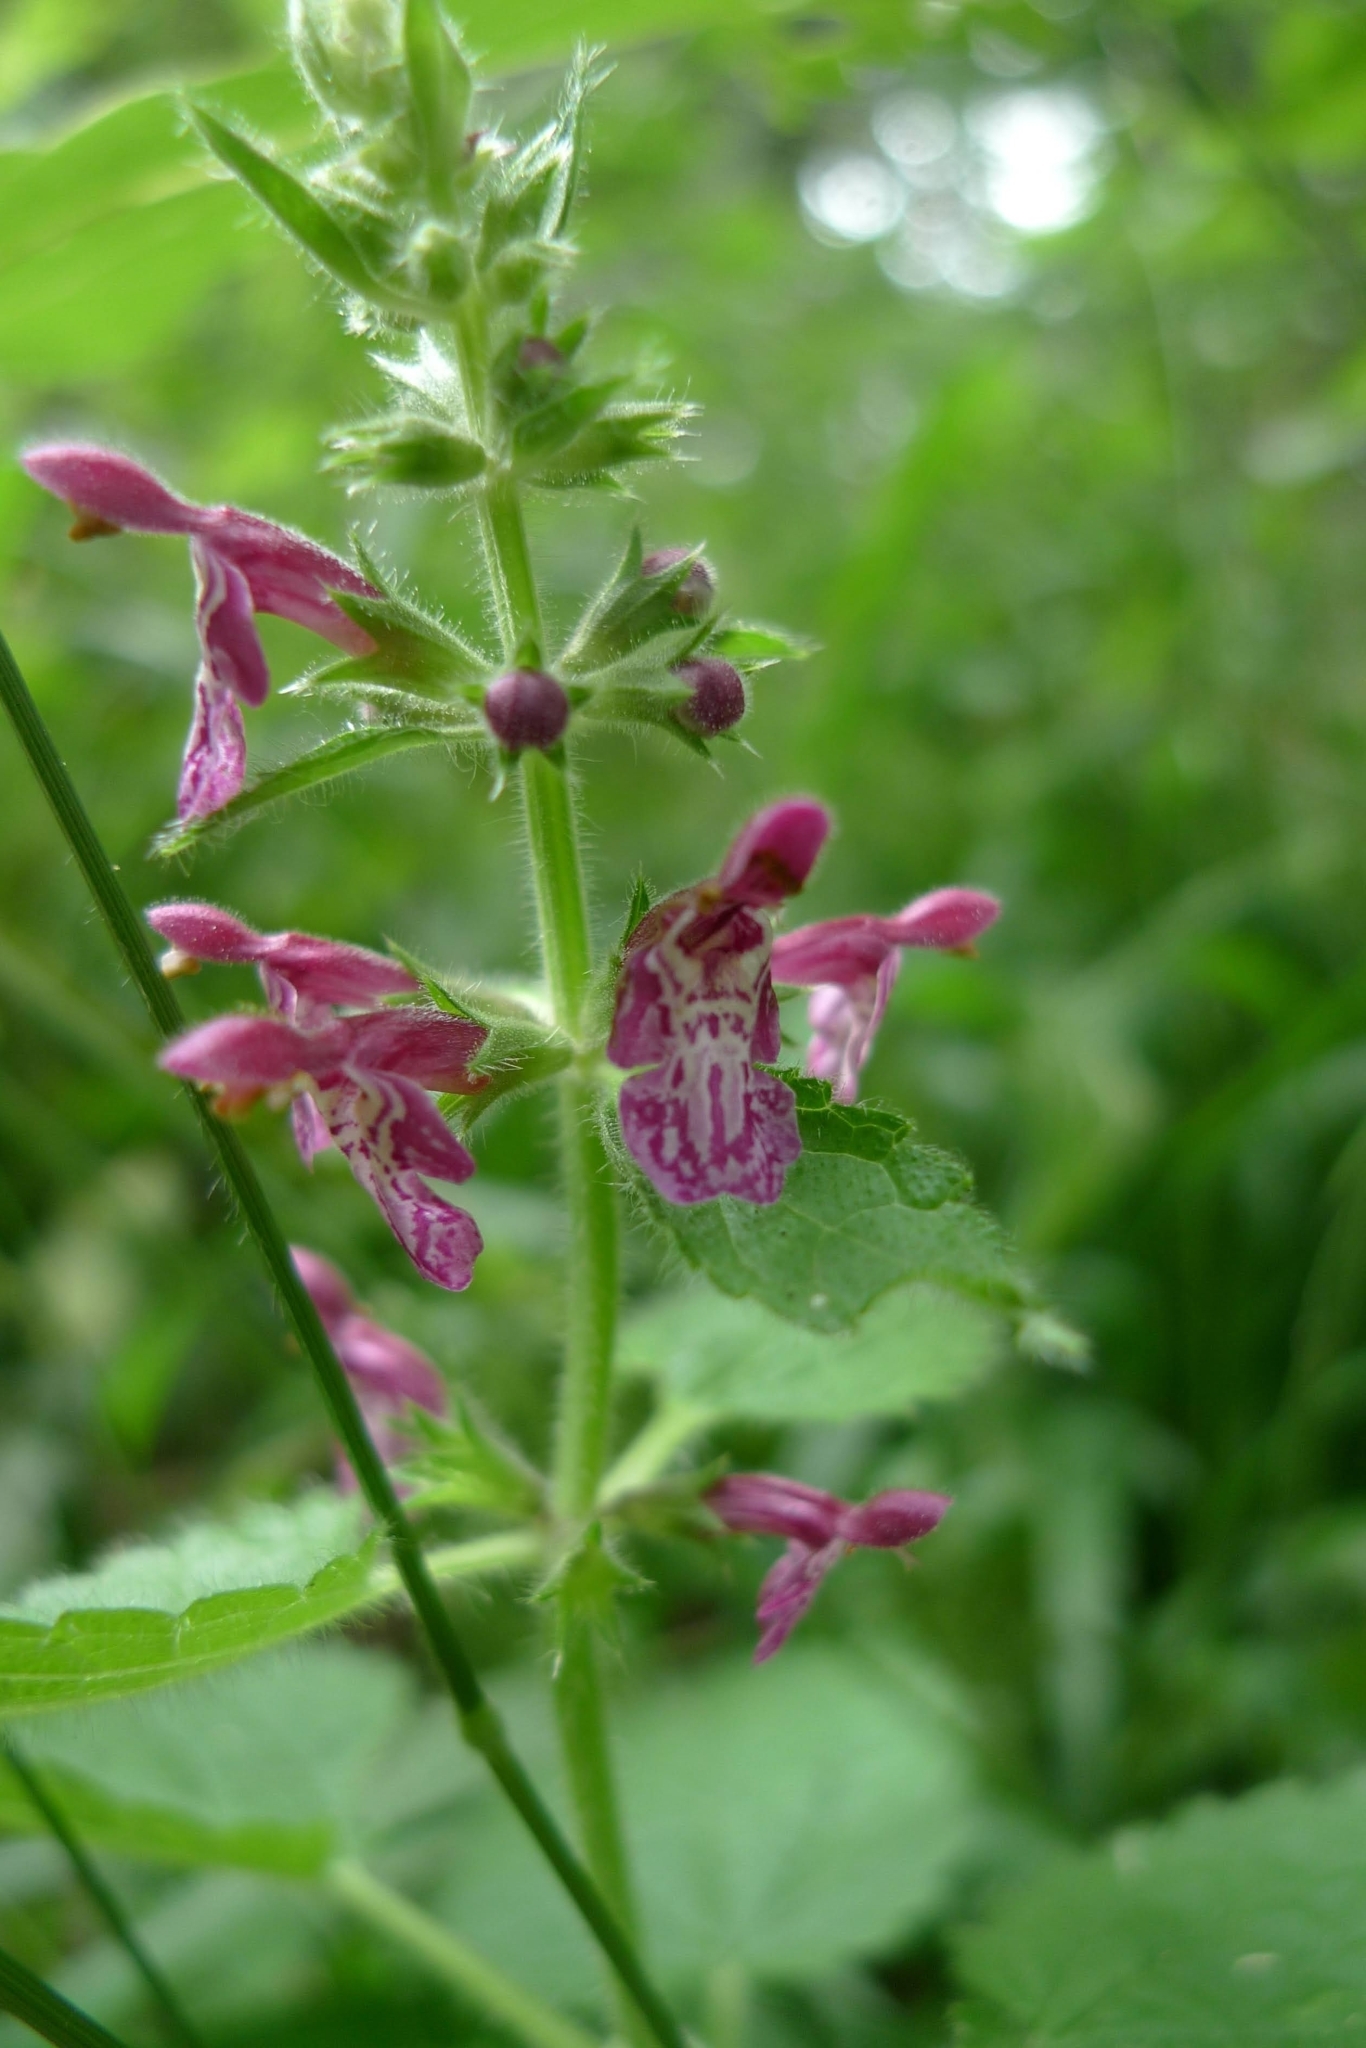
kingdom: Plantae
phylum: Tracheophyta
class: Magnoliopsida
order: Lamiales
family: Lamiaceae
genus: Stachys
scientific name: Stachys sylvatica
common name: Hedge woundwort
